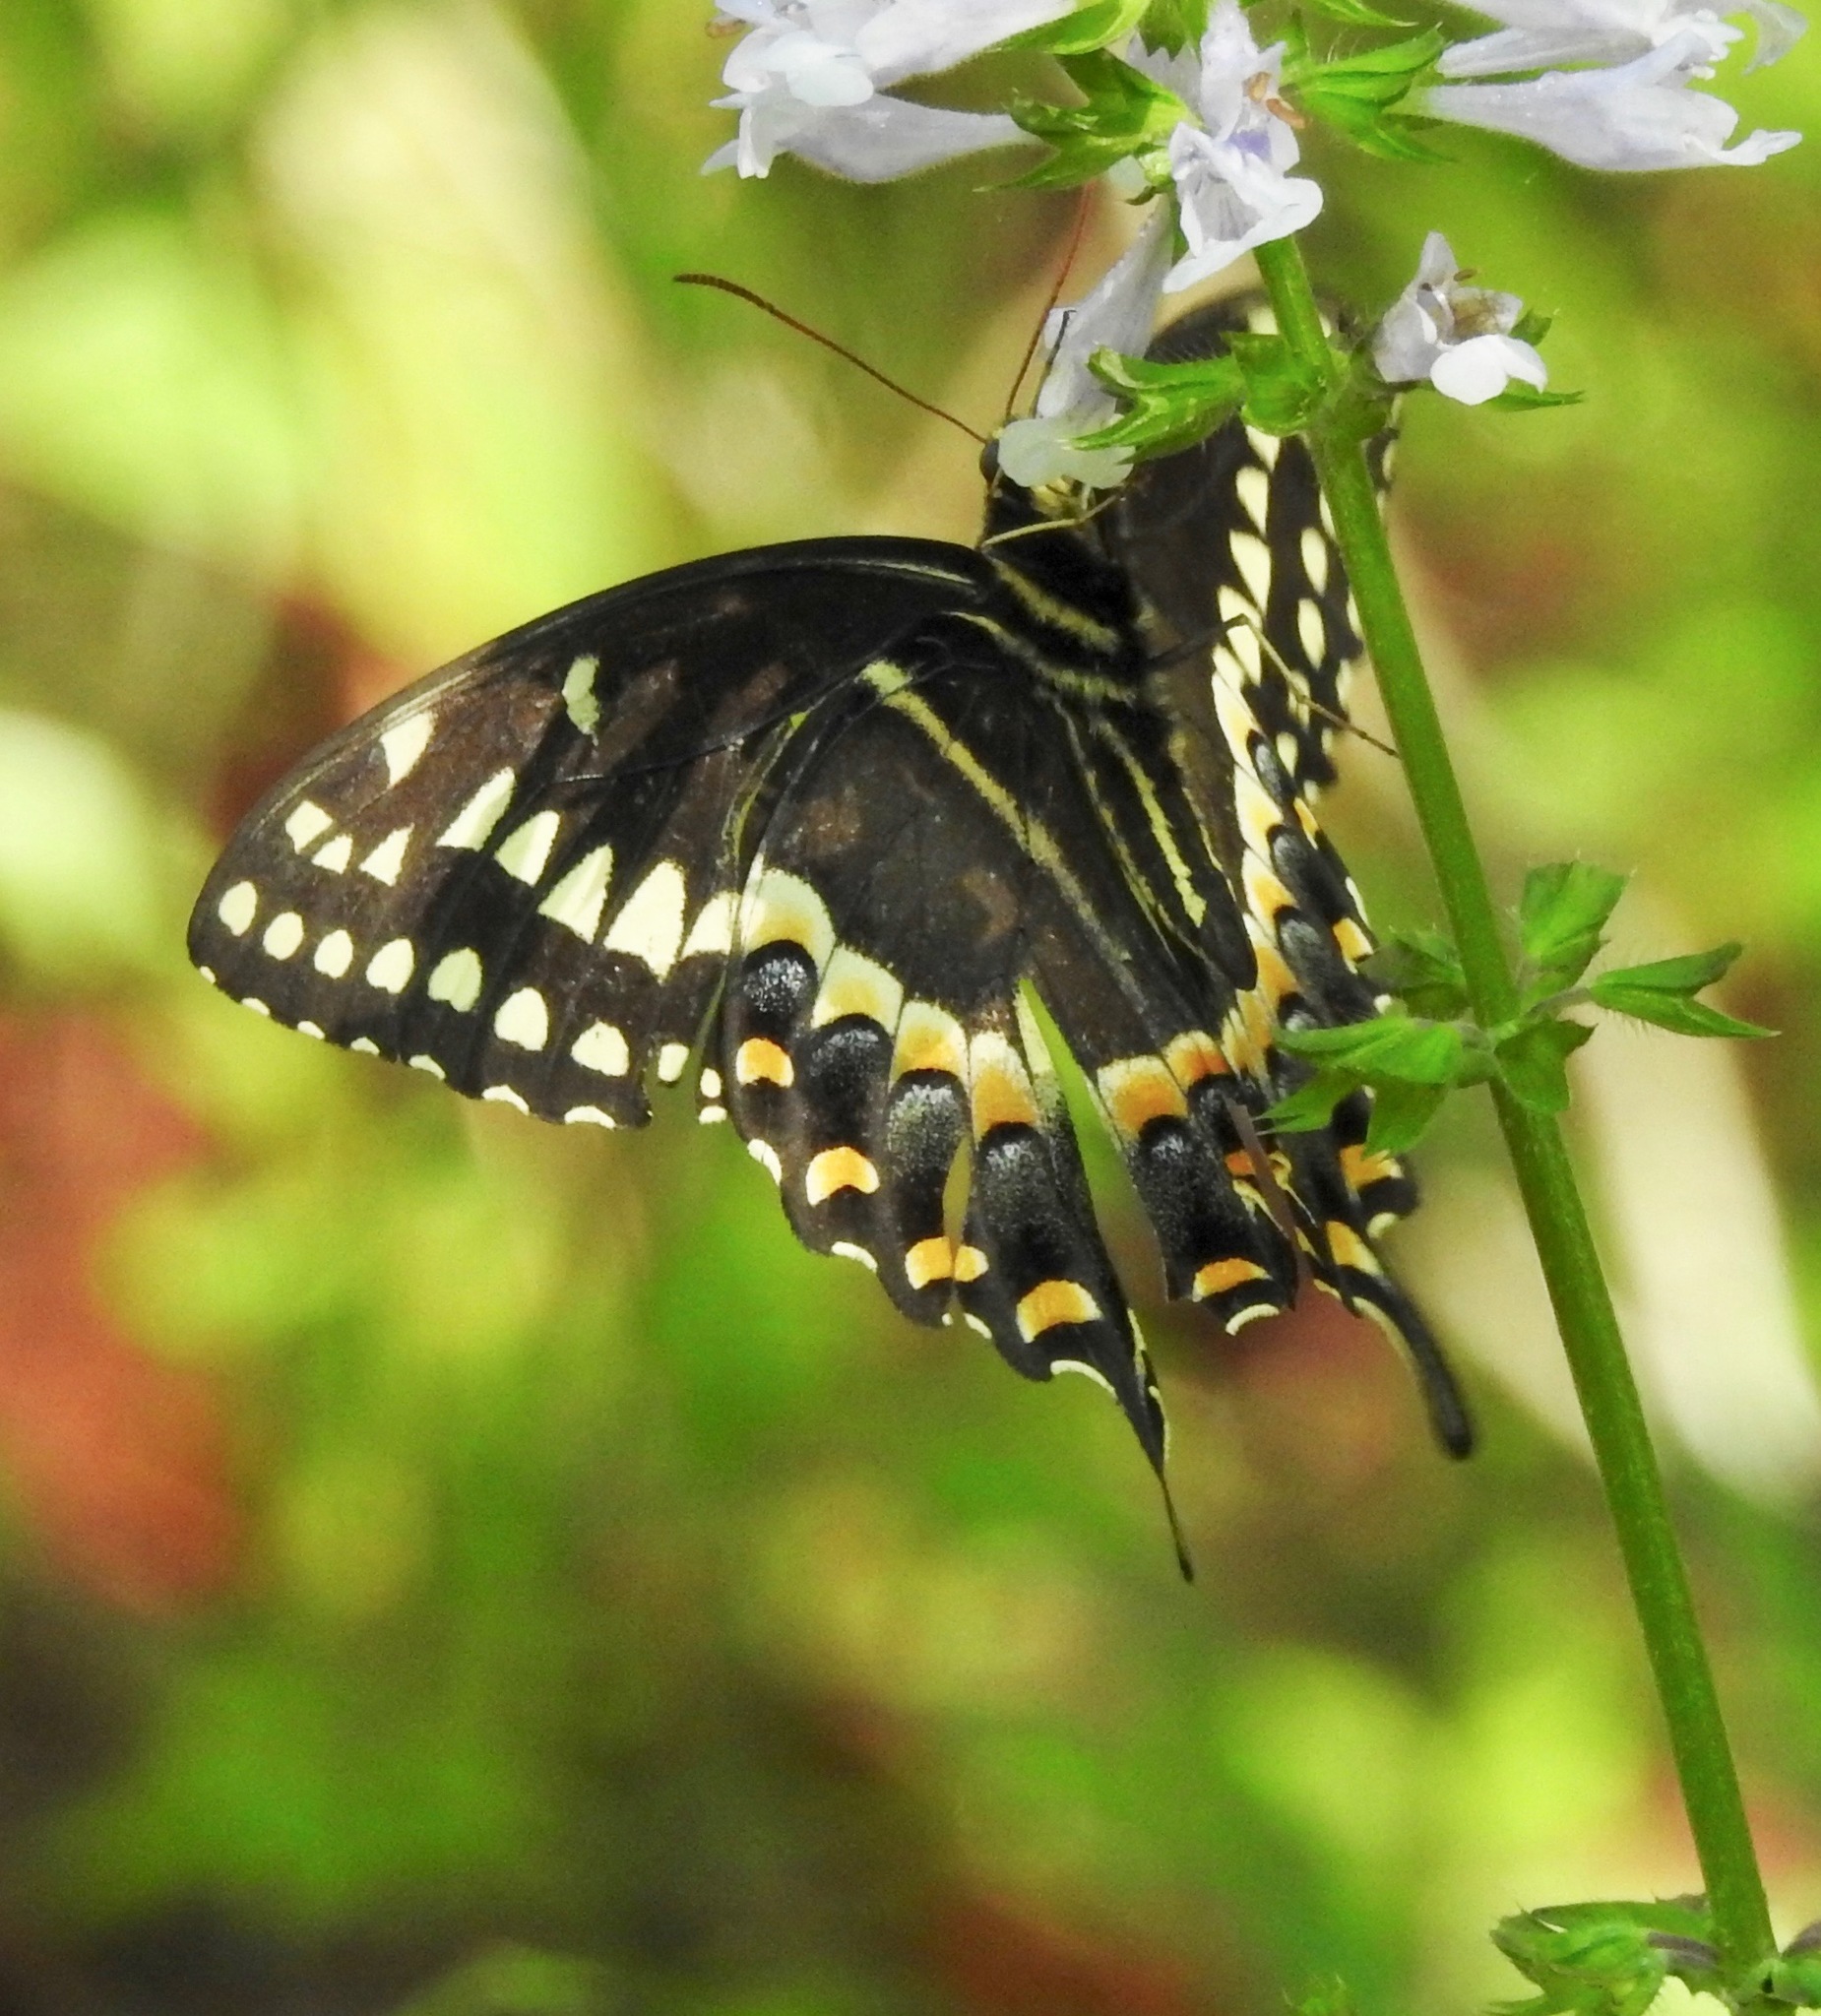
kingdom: Animalia
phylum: Arthropoda
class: Insecta
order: Lepidoptera
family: Papilionidae
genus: Papilio
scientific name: Papilio palamedes
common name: Palamedes swallowtail
